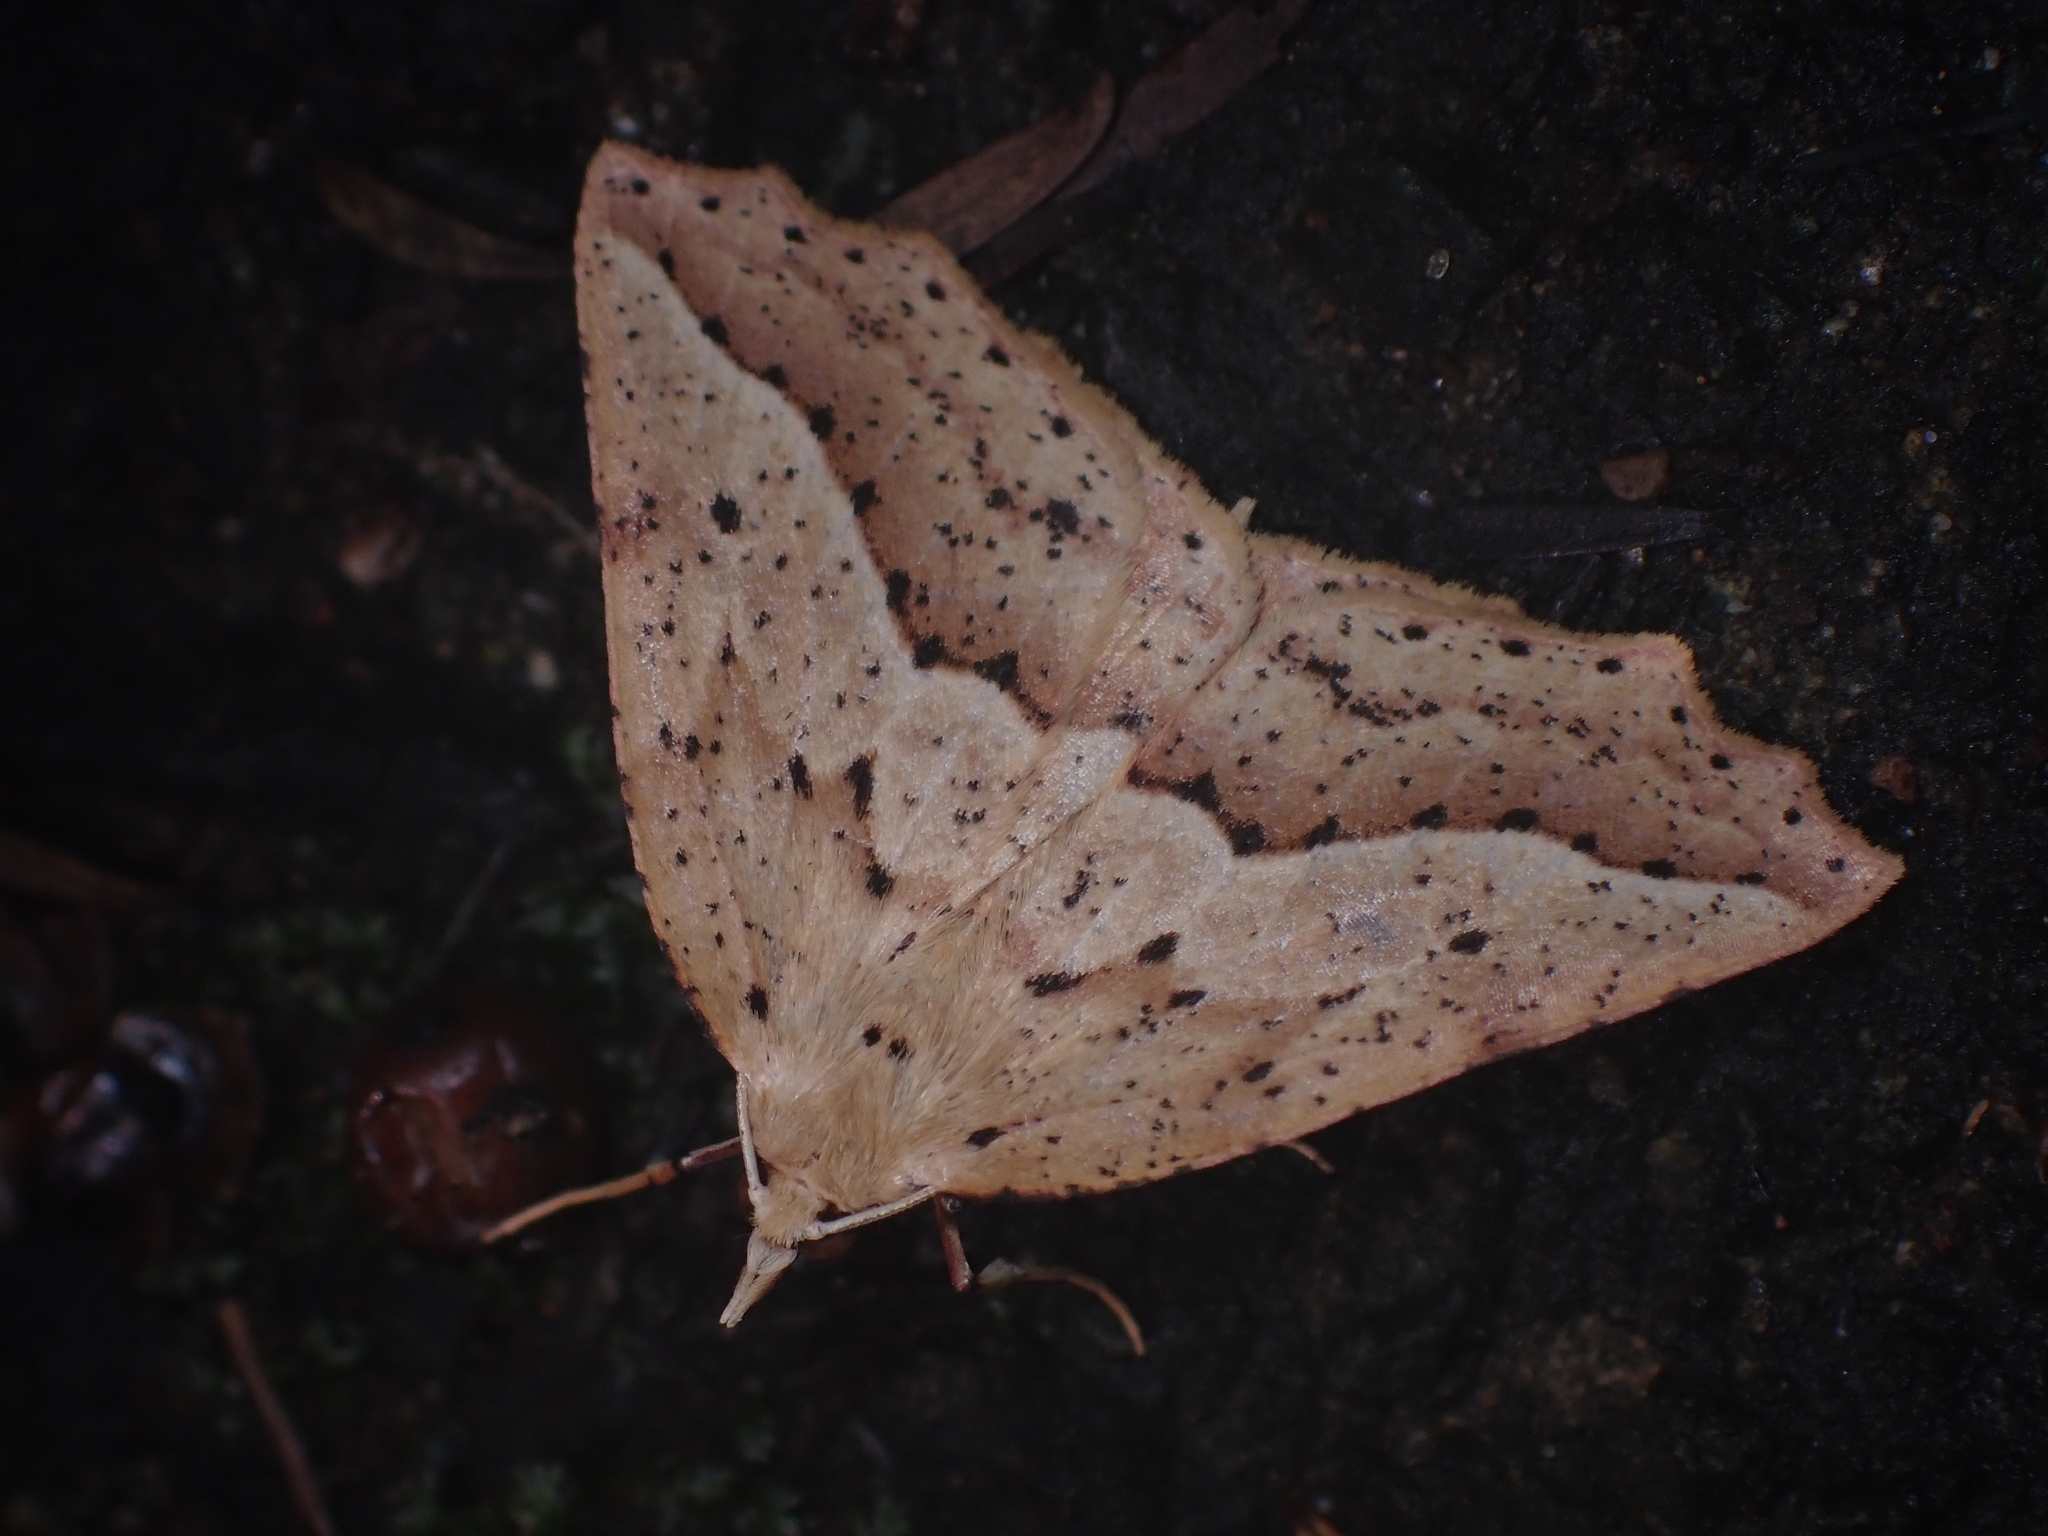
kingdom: Animalia
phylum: Arthropoda
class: Insecta
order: Lepidoptera
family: Geometridae
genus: Ischalis
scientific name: Ischalis variabilis
